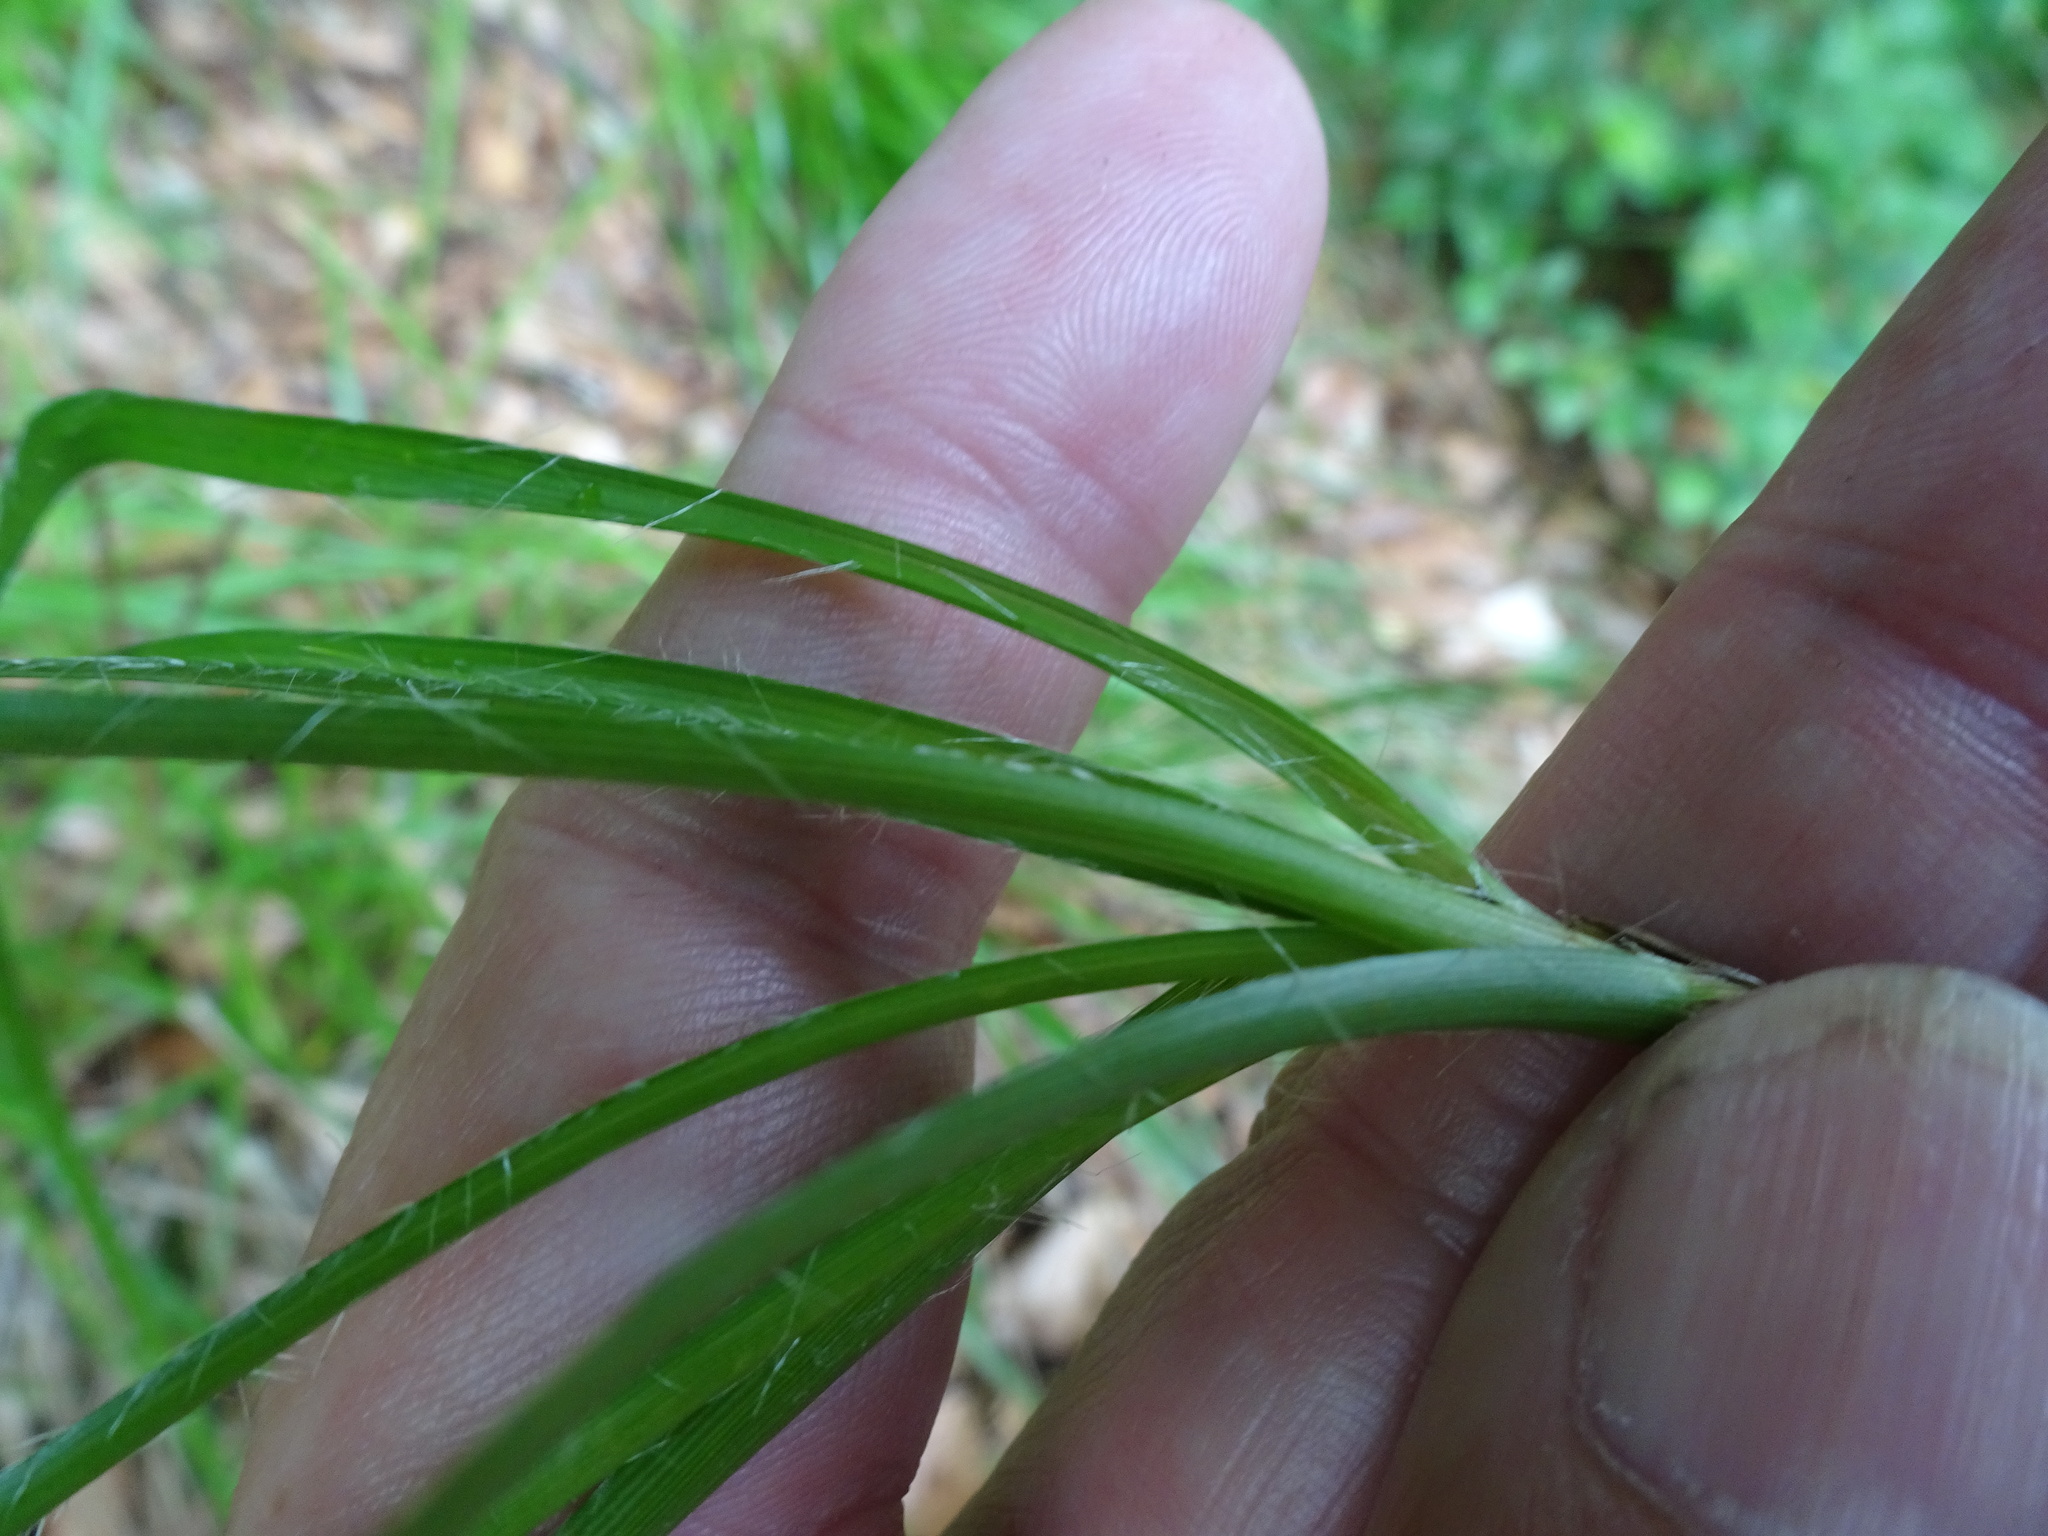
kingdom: Plantae
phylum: Tracheophyta
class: Liliopsida
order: Poales
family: Juncaceae
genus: Luzula
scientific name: Luzula luzuloides
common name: White wood-rush
